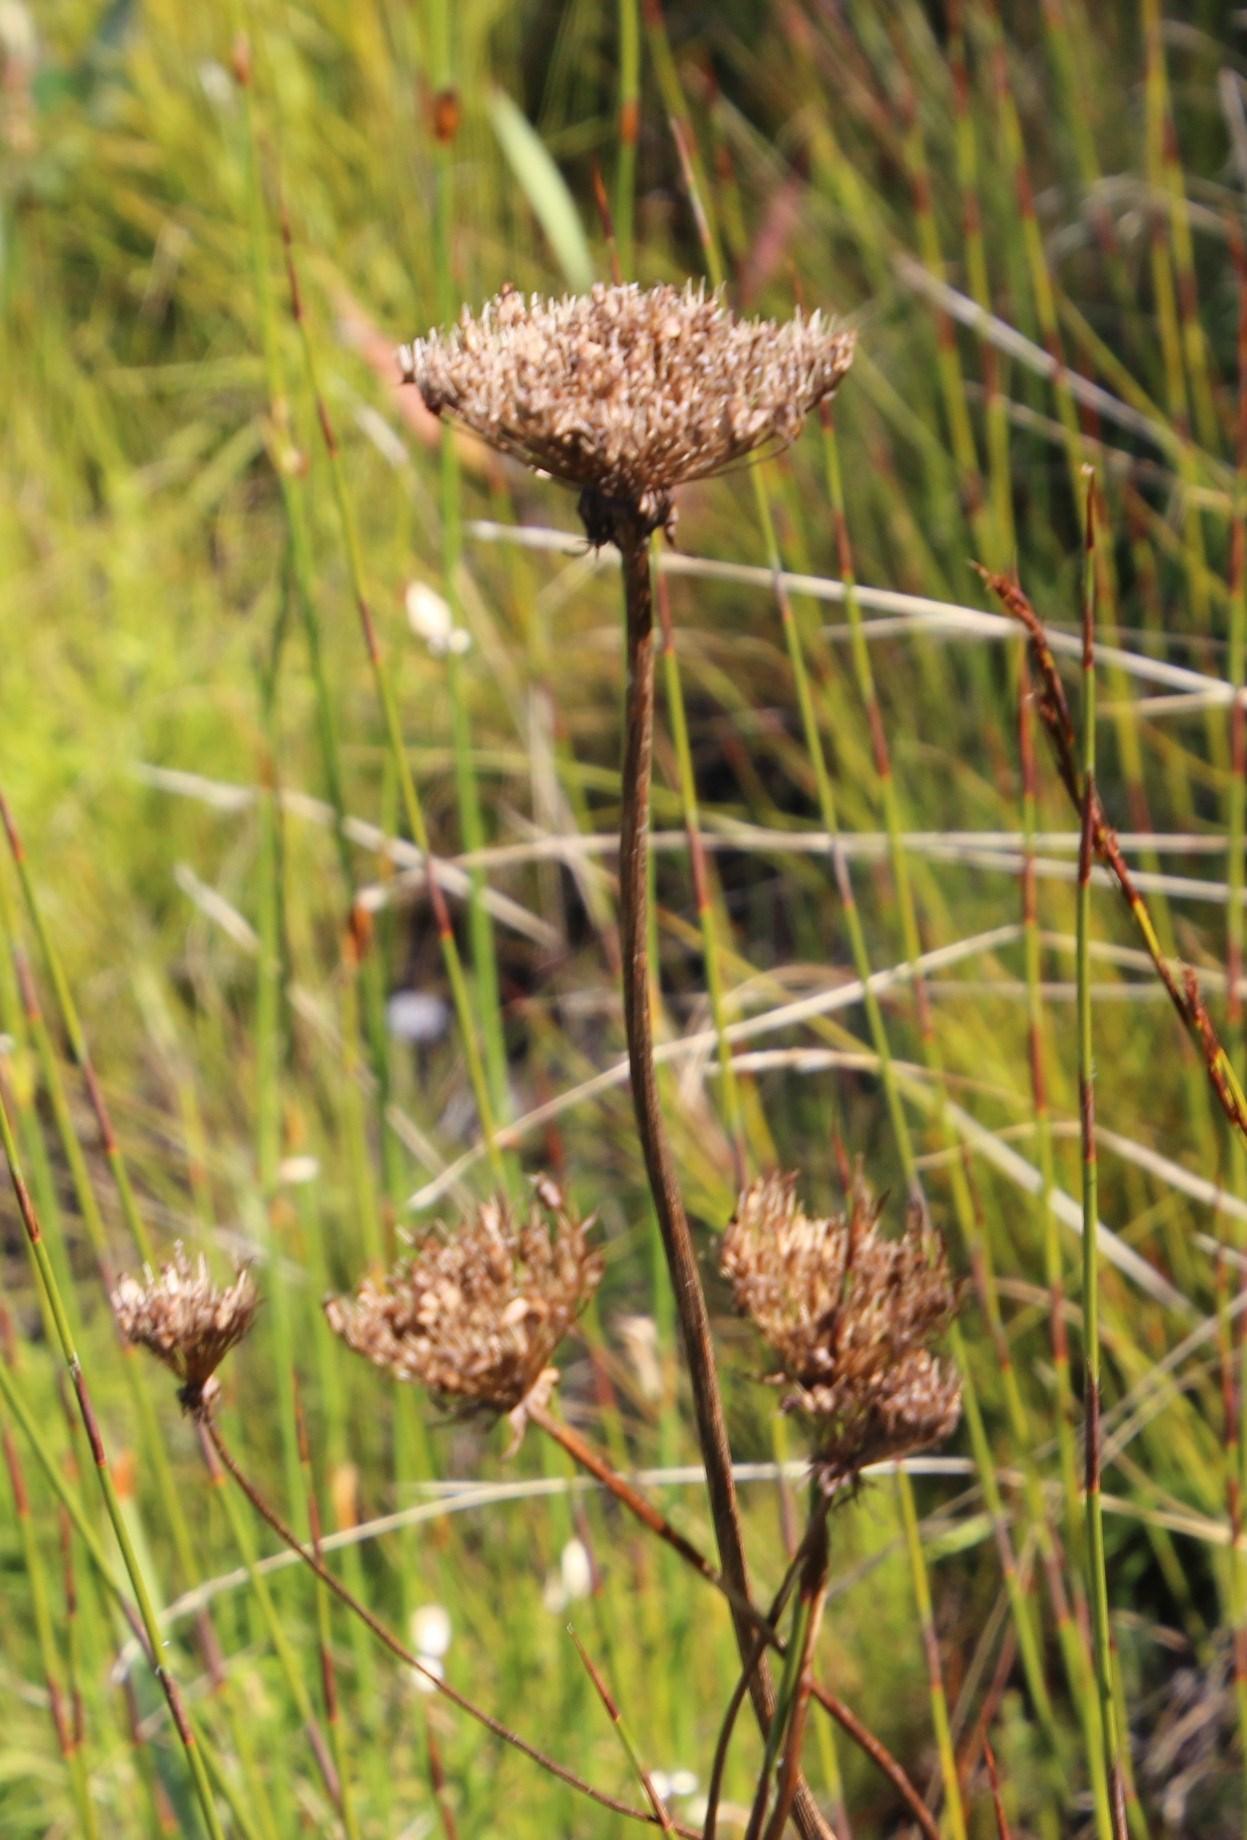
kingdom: Plantae
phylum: Tracheophyta
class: Magnoliopsida
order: Apiales
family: Apiaceae
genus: Hermas
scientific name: Hermas ciliata
